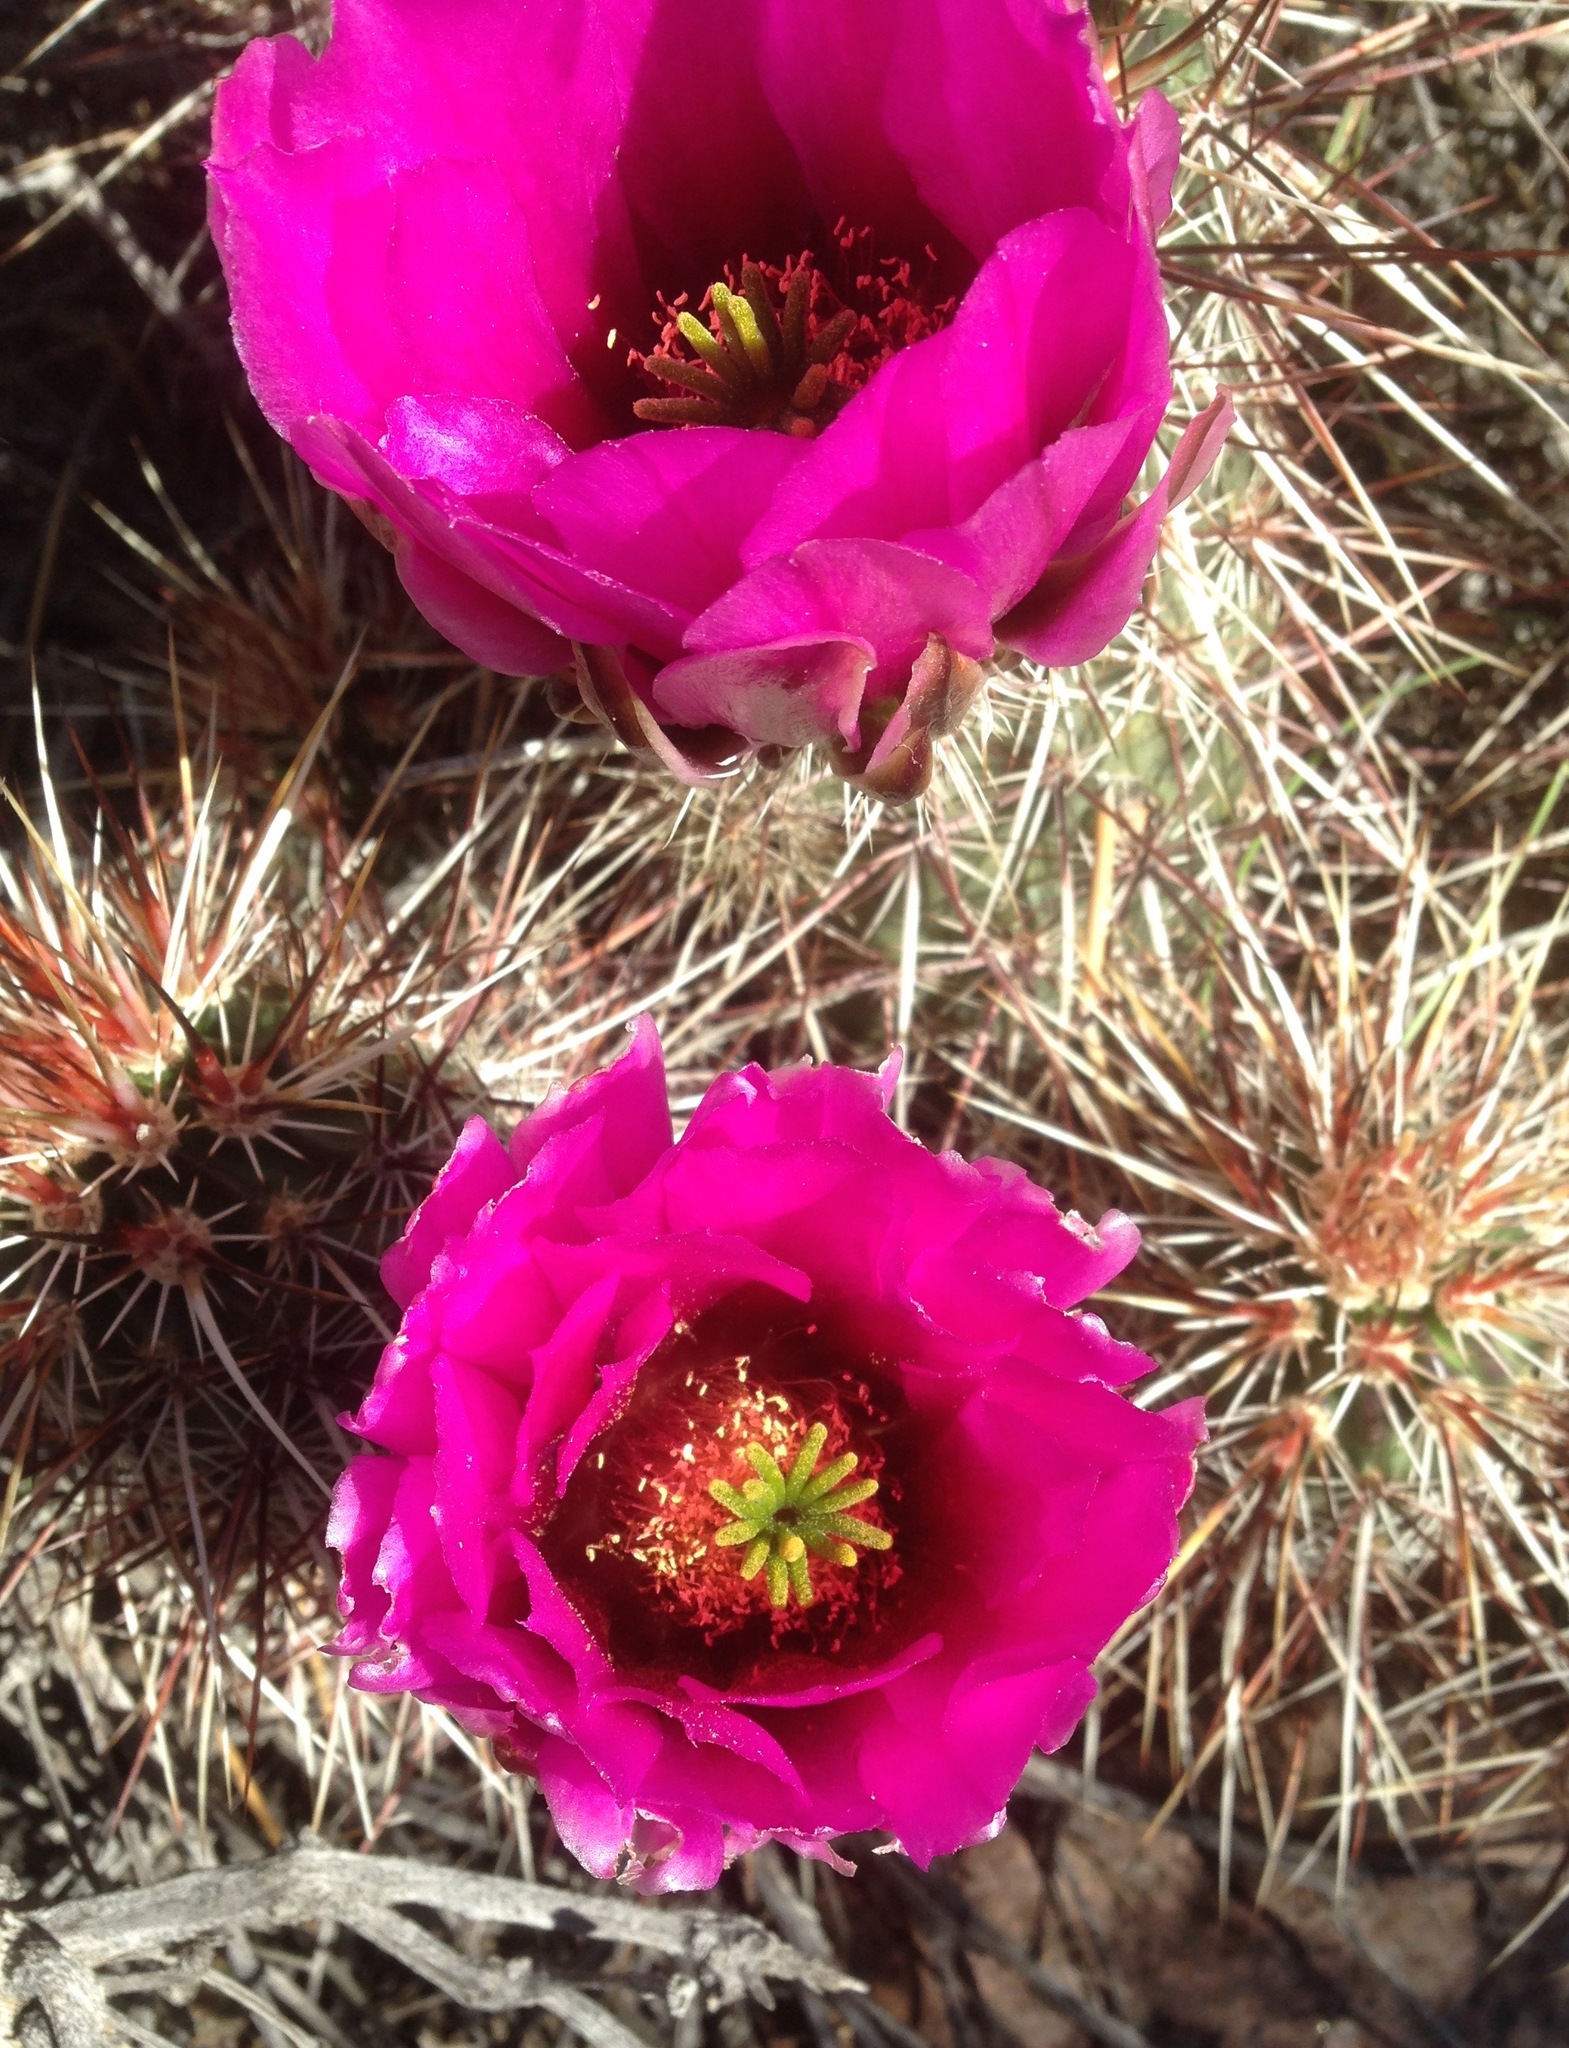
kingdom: Plantae
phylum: Tracheophyta
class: Magnoliopsida
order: Caryophyllales
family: Cactaceae
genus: Echinocereus
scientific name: Echinocereus engelmannii
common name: Engelmann's hedgehog cactus
